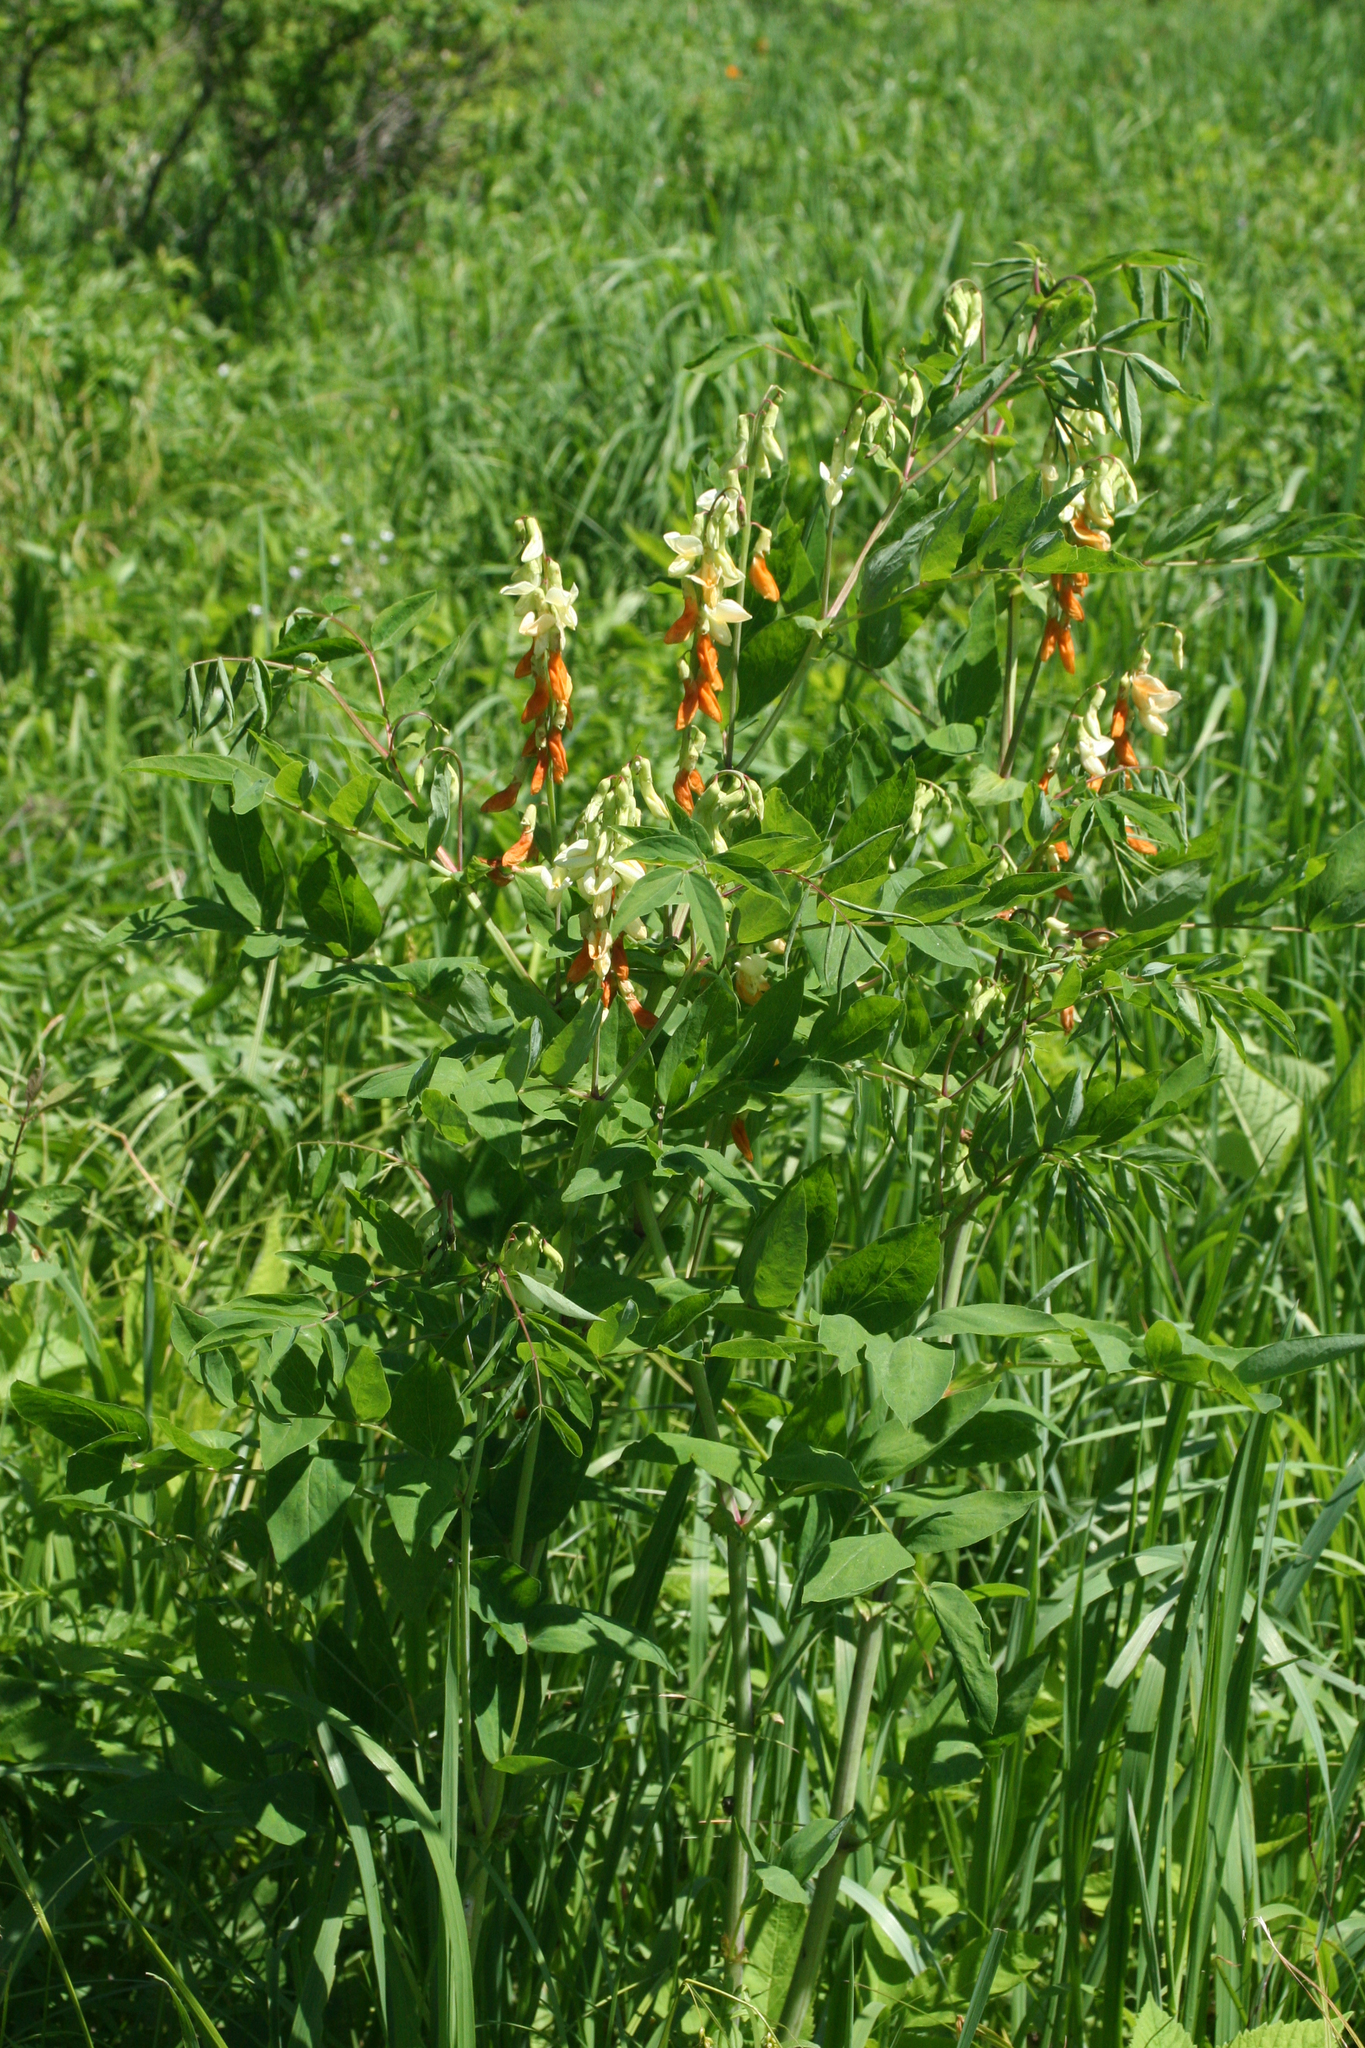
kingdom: Plantae
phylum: Tracheophyta
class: Magnoliopsida
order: Fabales
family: Fabaceae
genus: Lathyrus
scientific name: Lathyrus gmelinii
